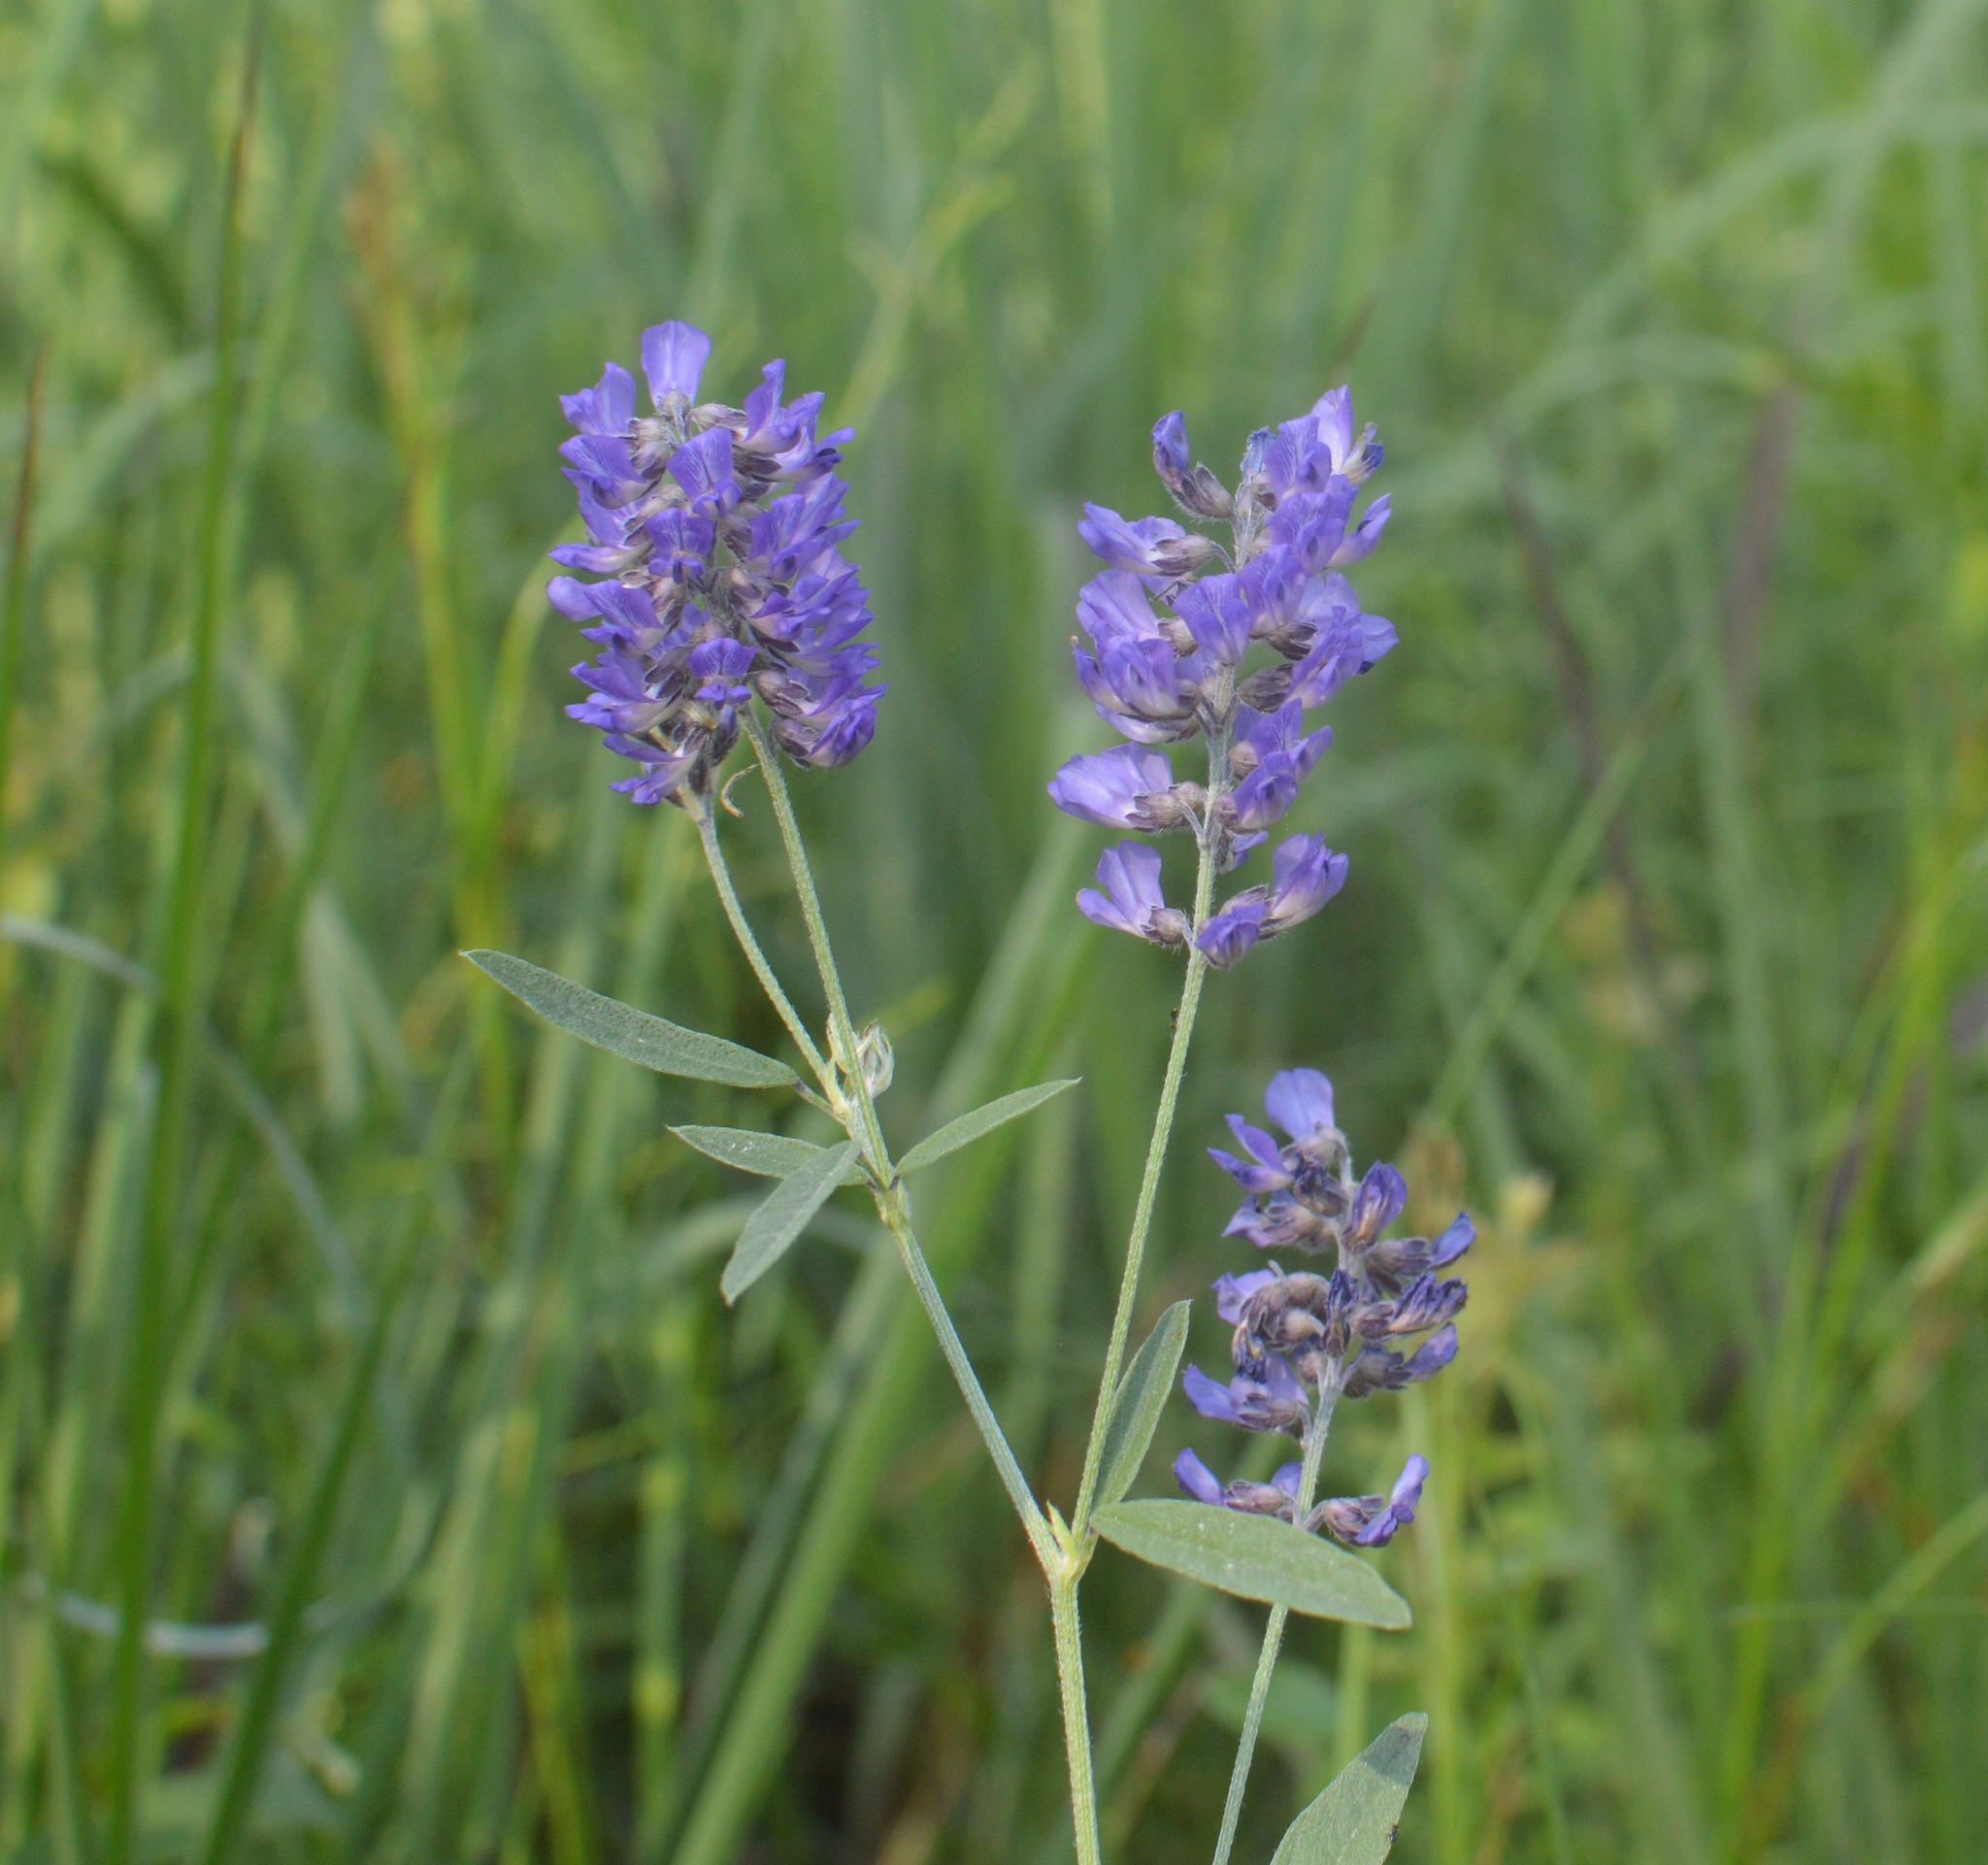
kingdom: Plantae
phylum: Tracheophyta
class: Magnoliopsida
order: Fabales
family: Fabaceae
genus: Orbexilum
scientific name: Orbexilum simplex
